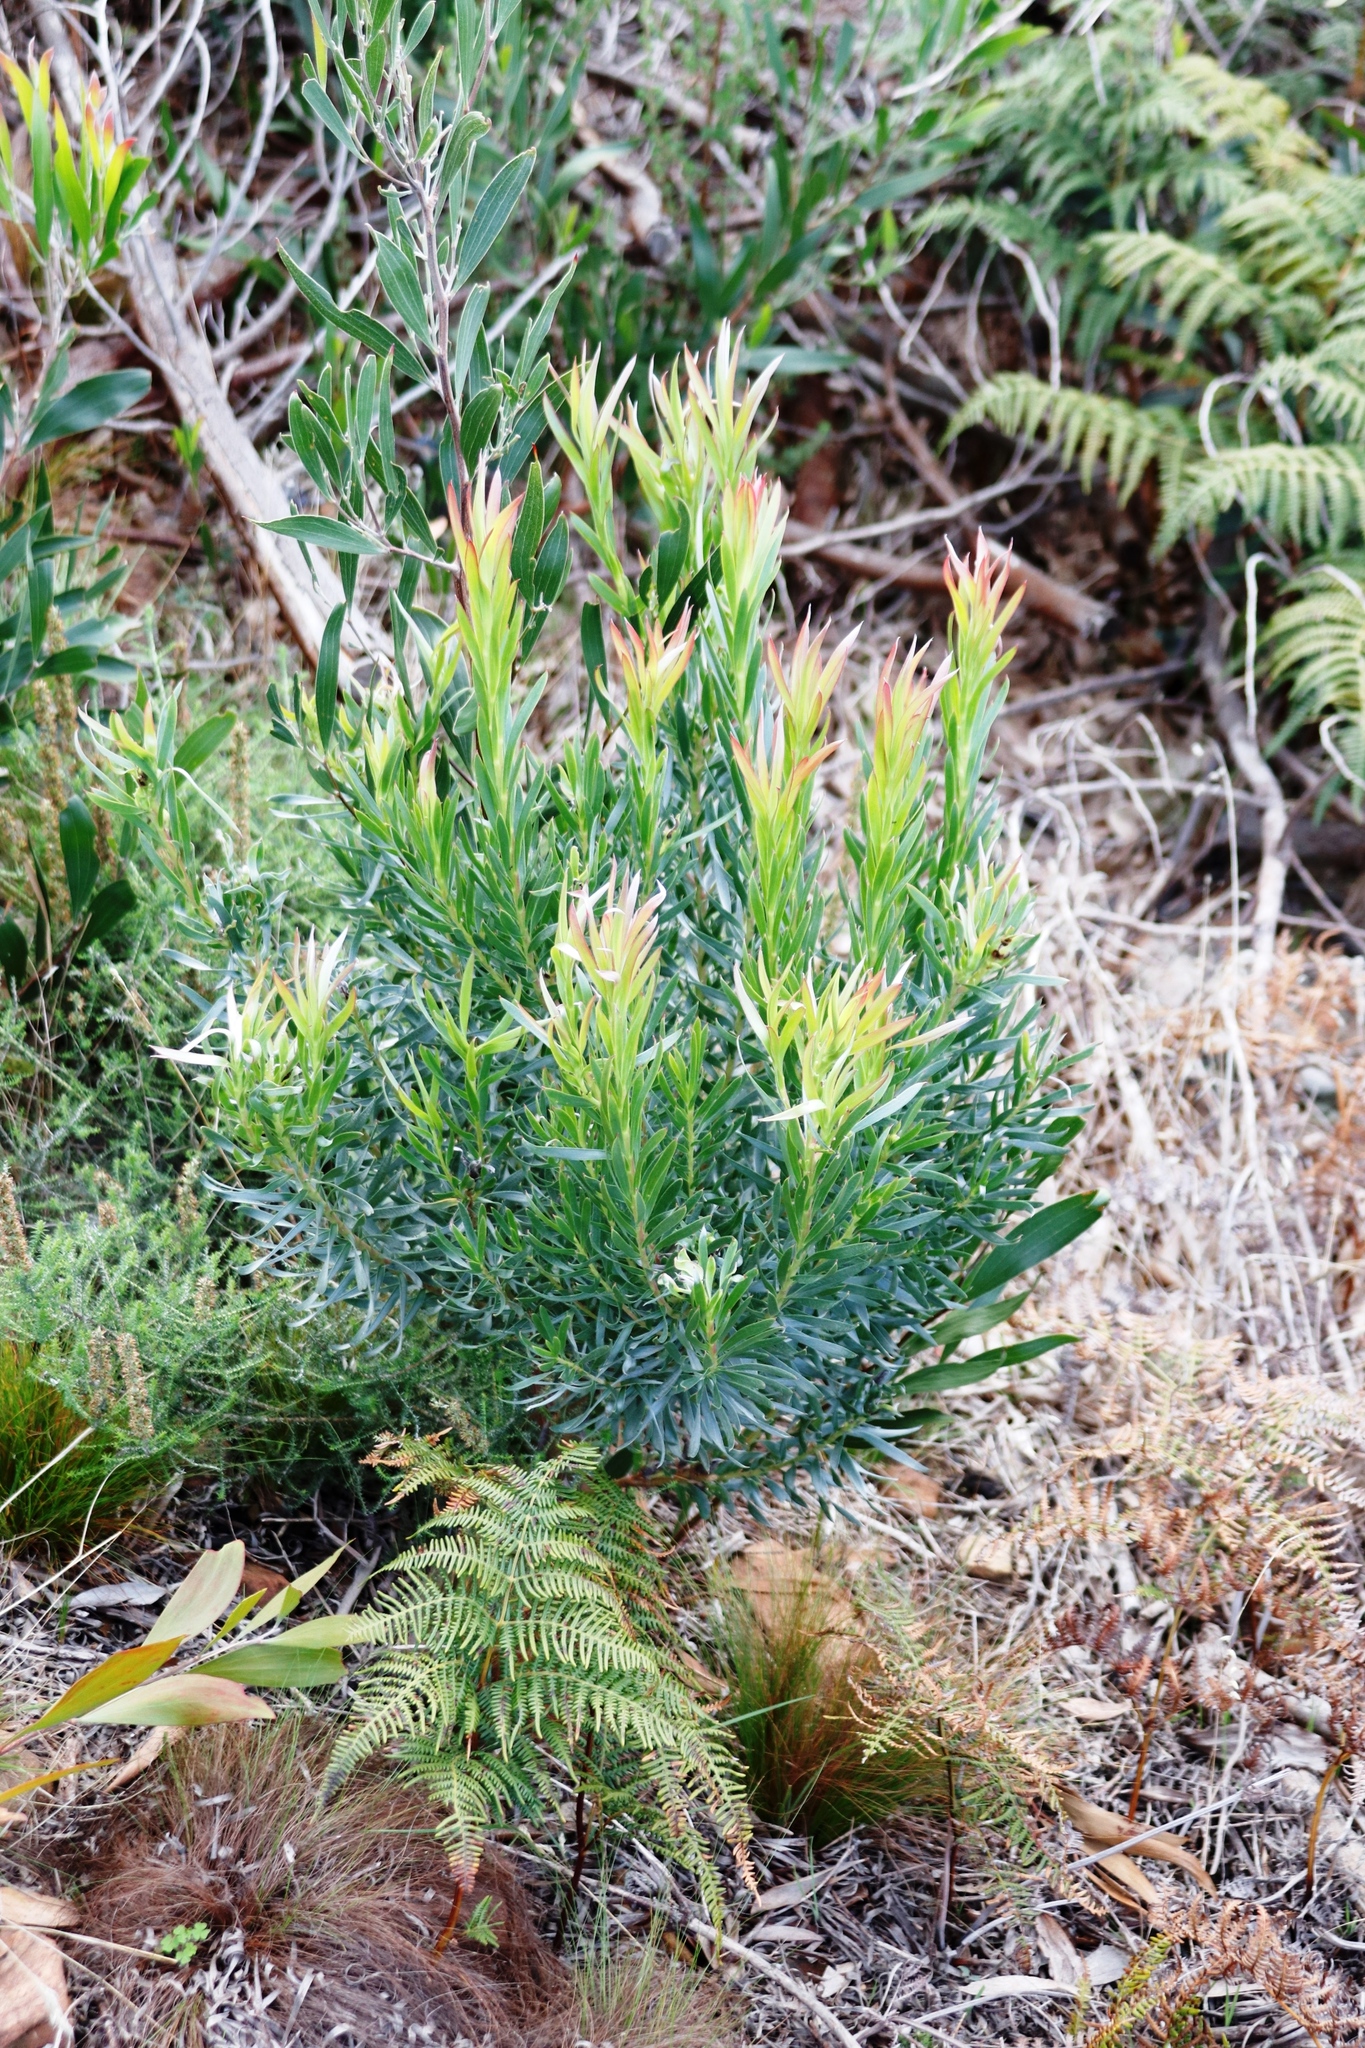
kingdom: Plantae
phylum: Tracheophyta
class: Magnoliopsida
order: Proteales
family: Proteaceae
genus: Leucadendron
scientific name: Leucadendron xanthoconus
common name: Sickle-leaf conebush
